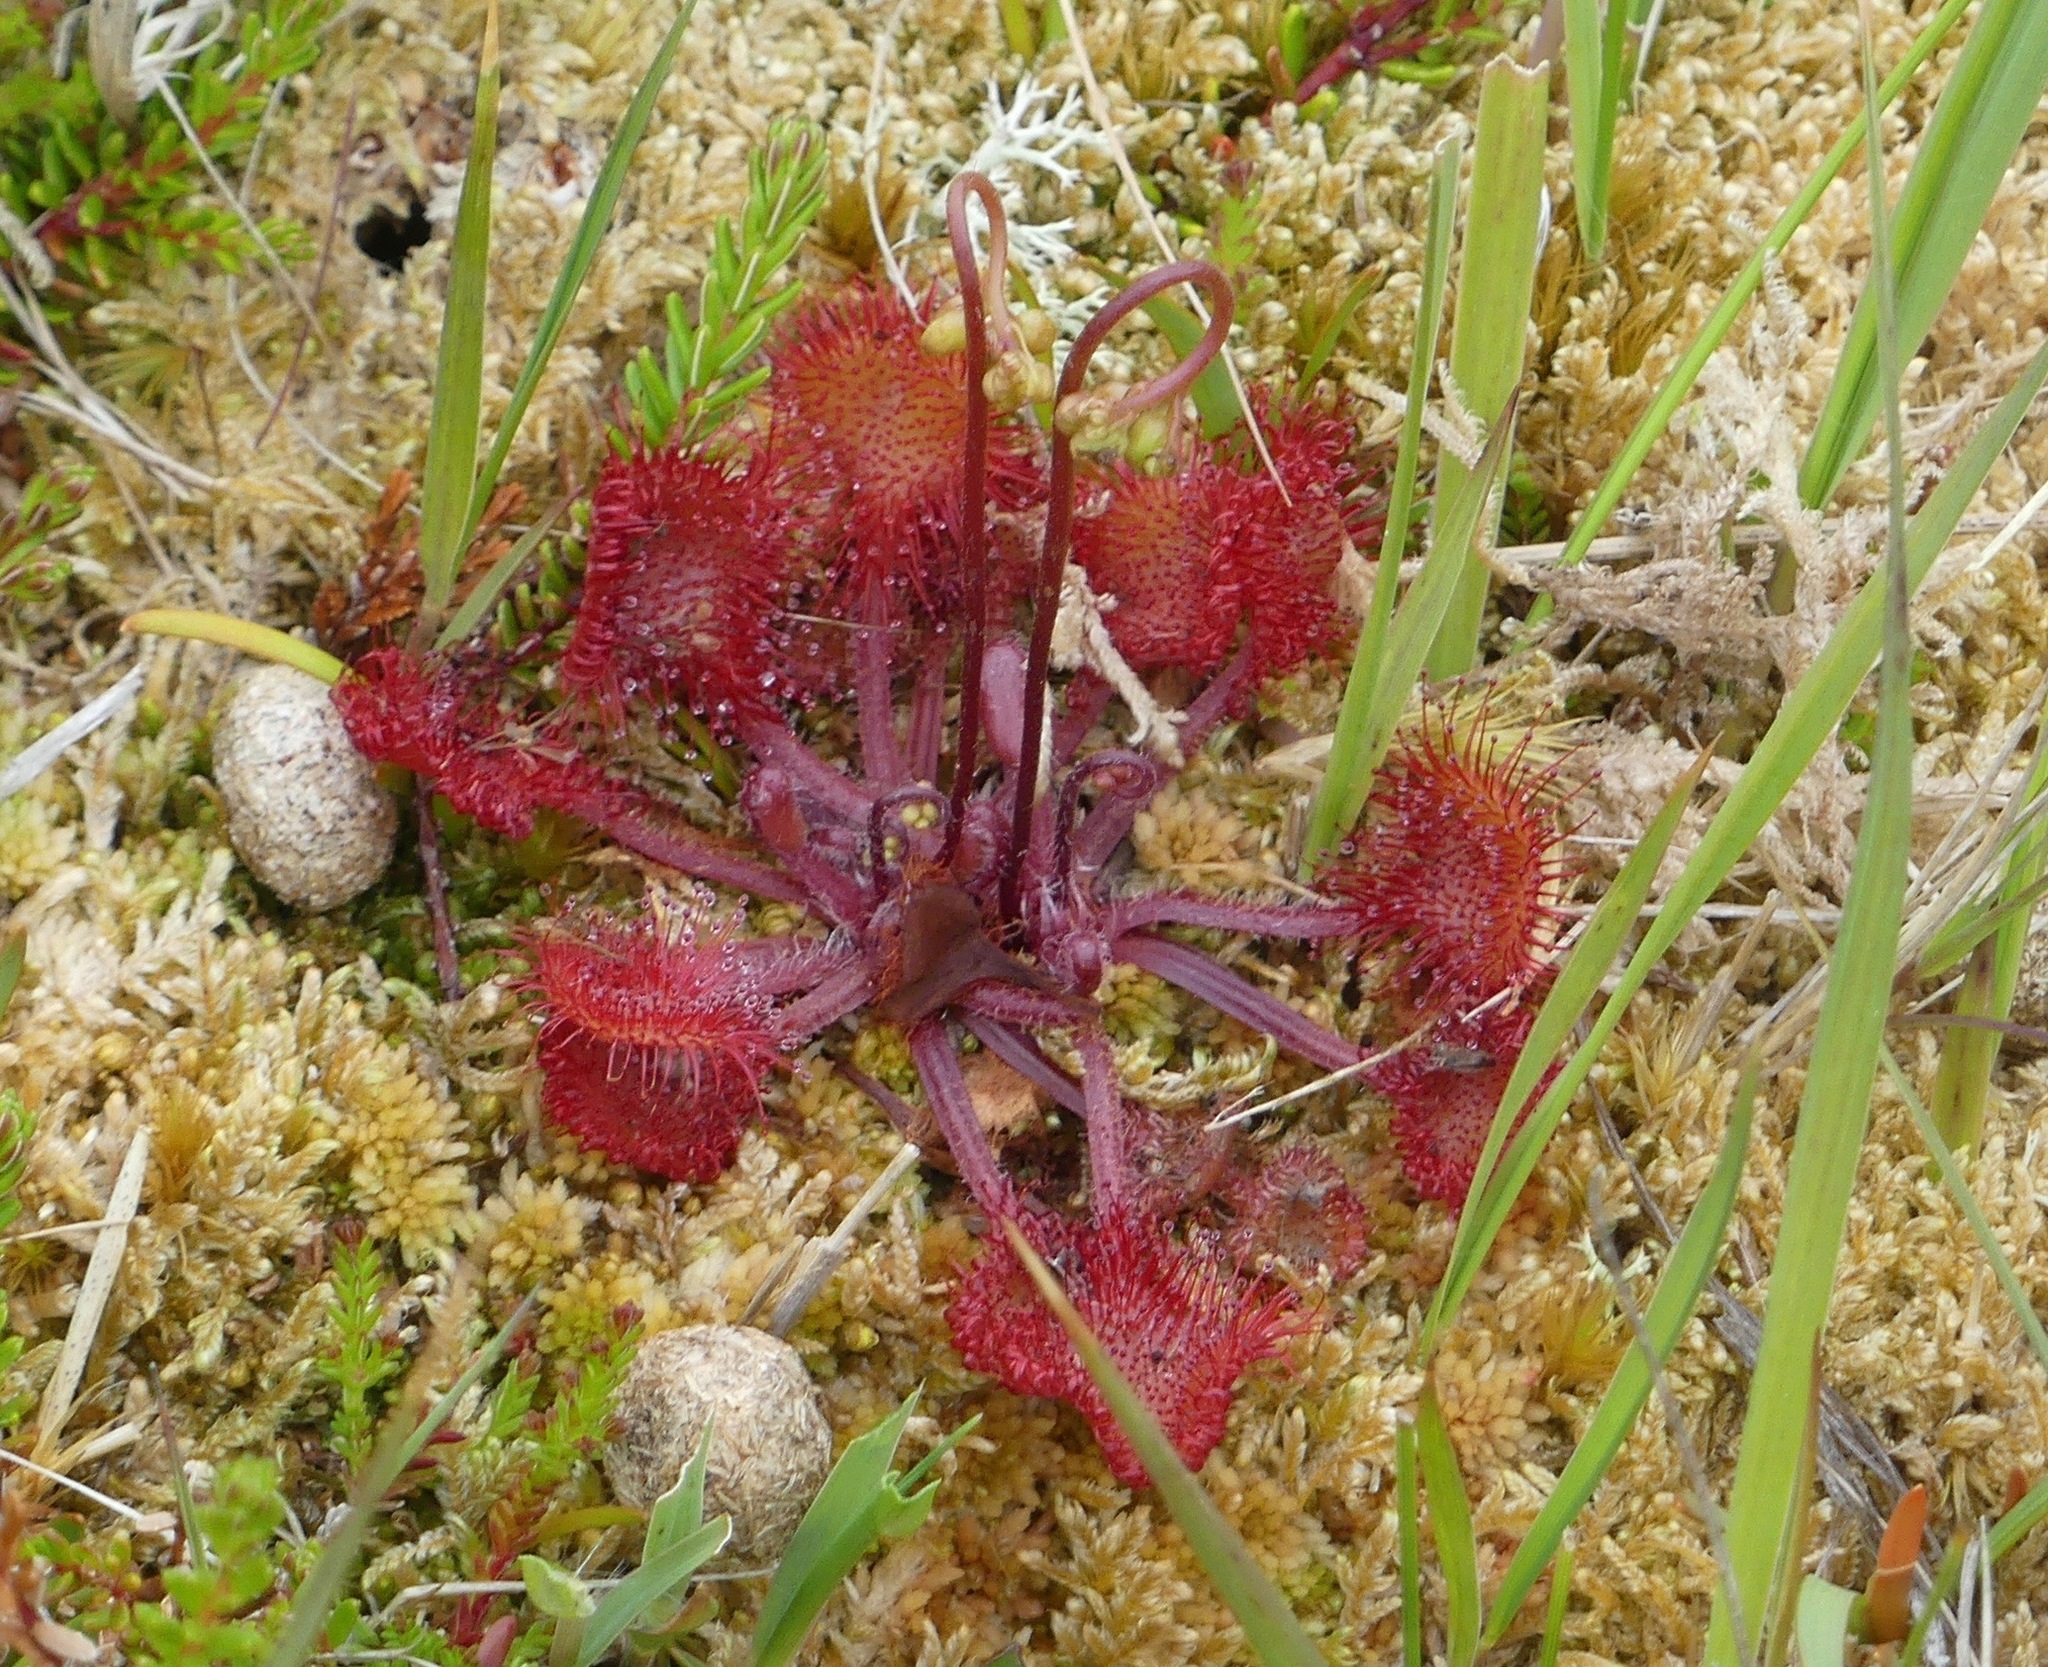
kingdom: Plantae
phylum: Tracheophyta
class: Magnoliopsida
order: Caryophyllales
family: Droseraceae
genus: Drosera
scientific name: Drosera rotundifolia
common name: Round-leaved sundew
